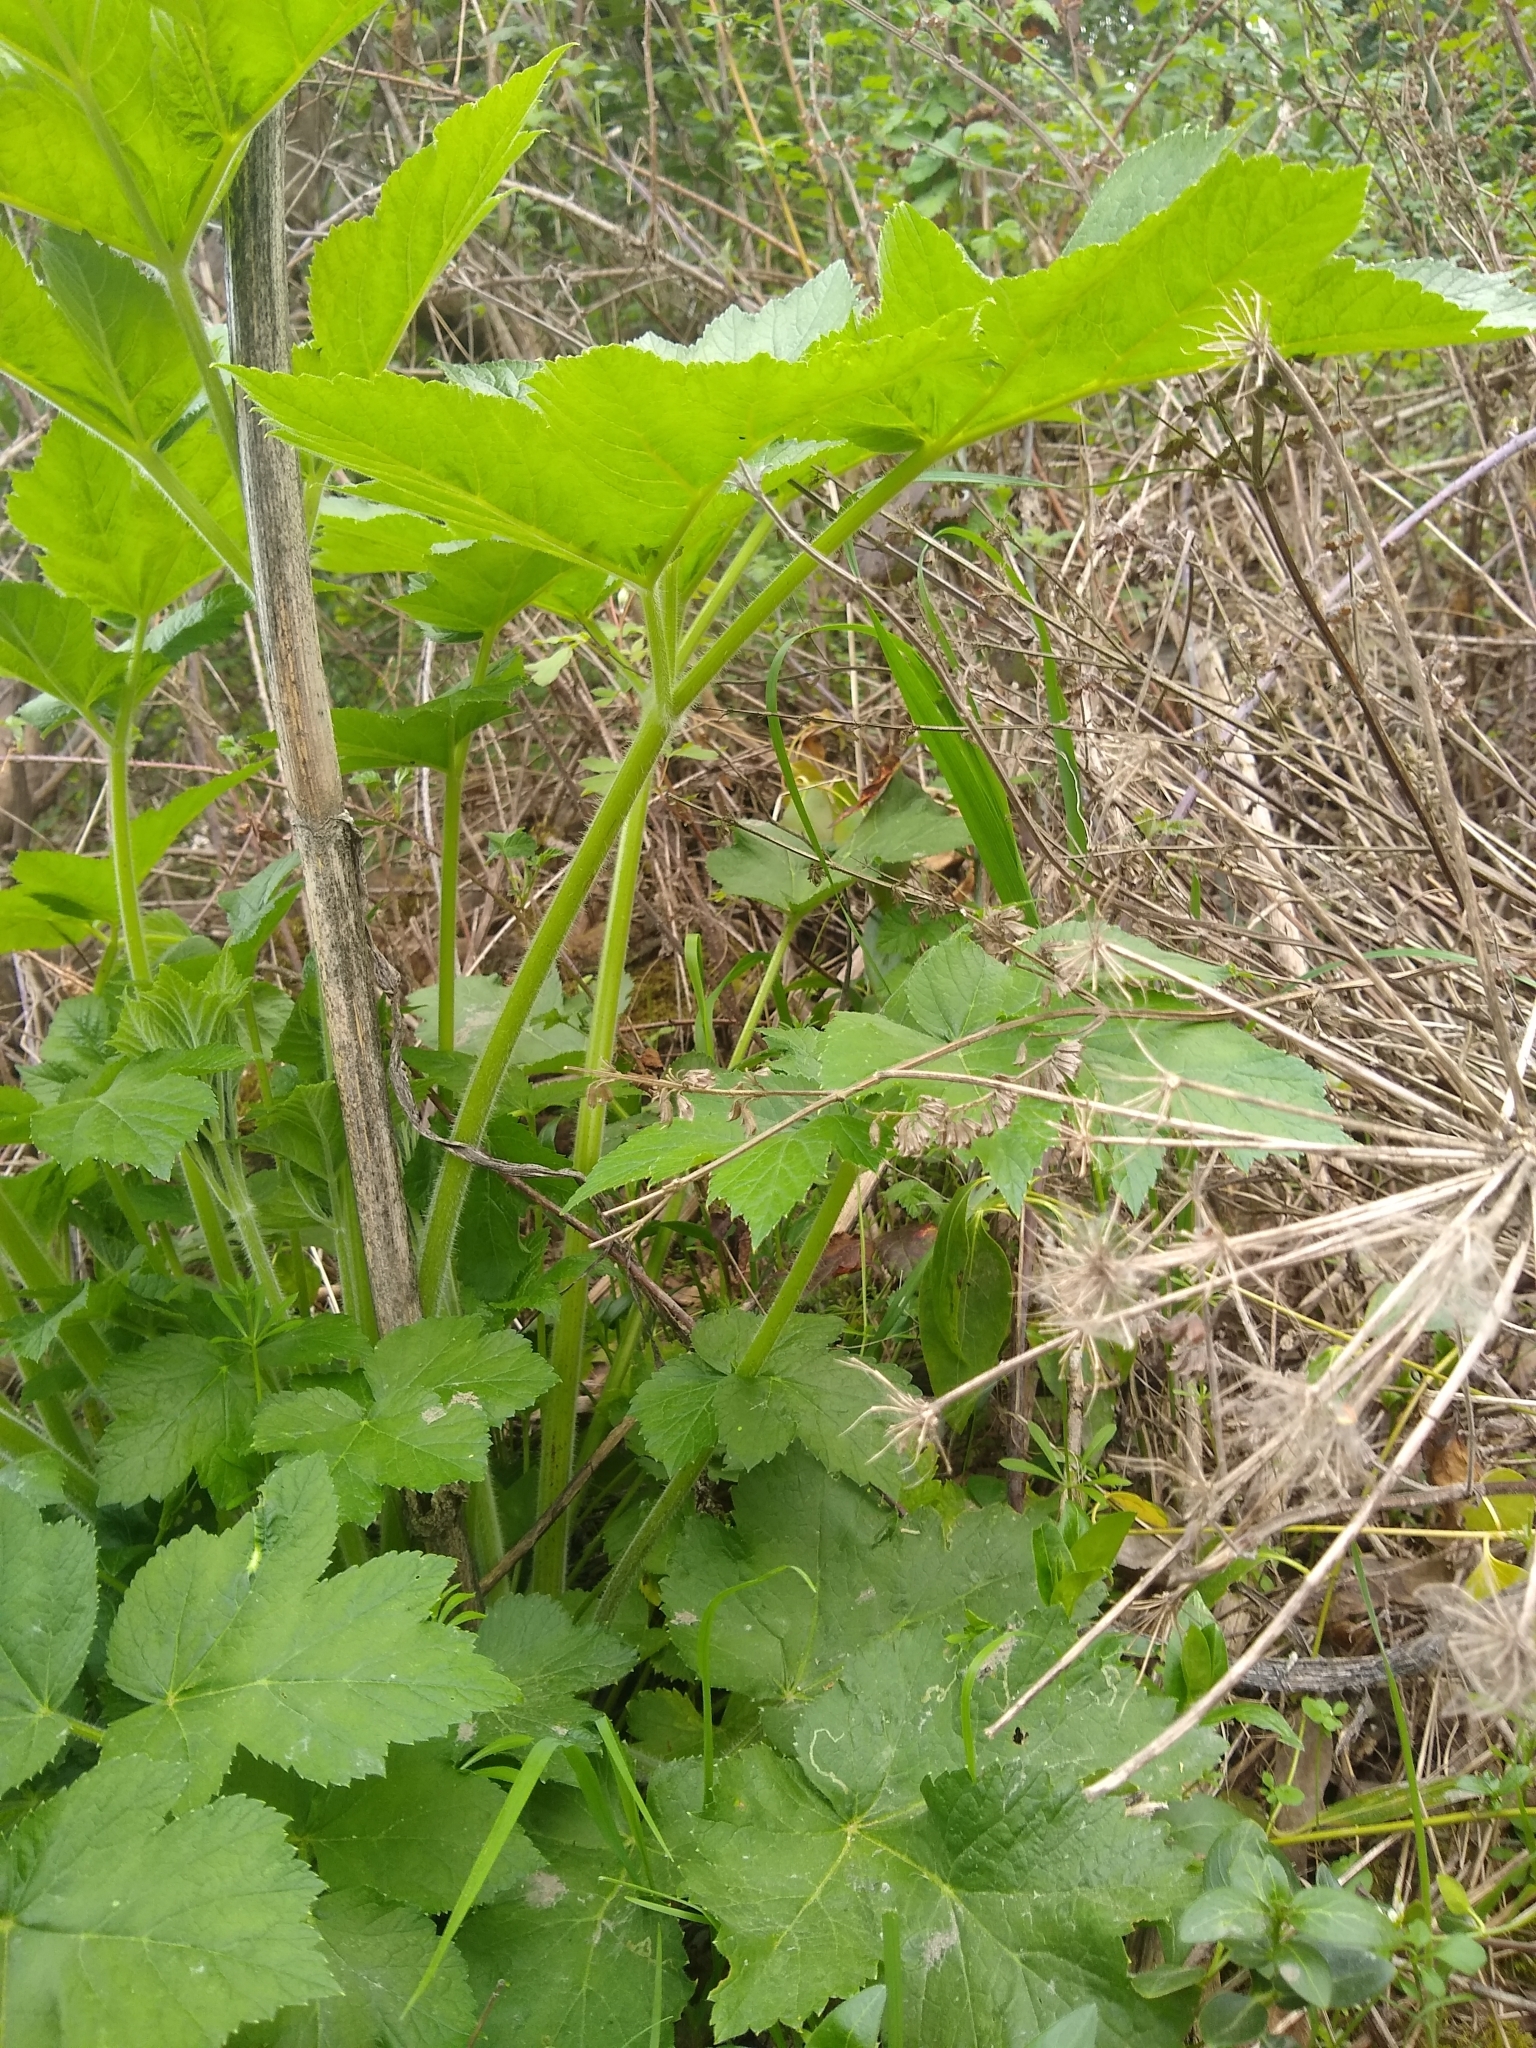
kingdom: Plantae
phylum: Tracheophyta
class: Magnoliopsida
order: Apiales
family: Apiaceae
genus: Heracleum
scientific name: Heracleum maximum
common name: American cow parsnip
